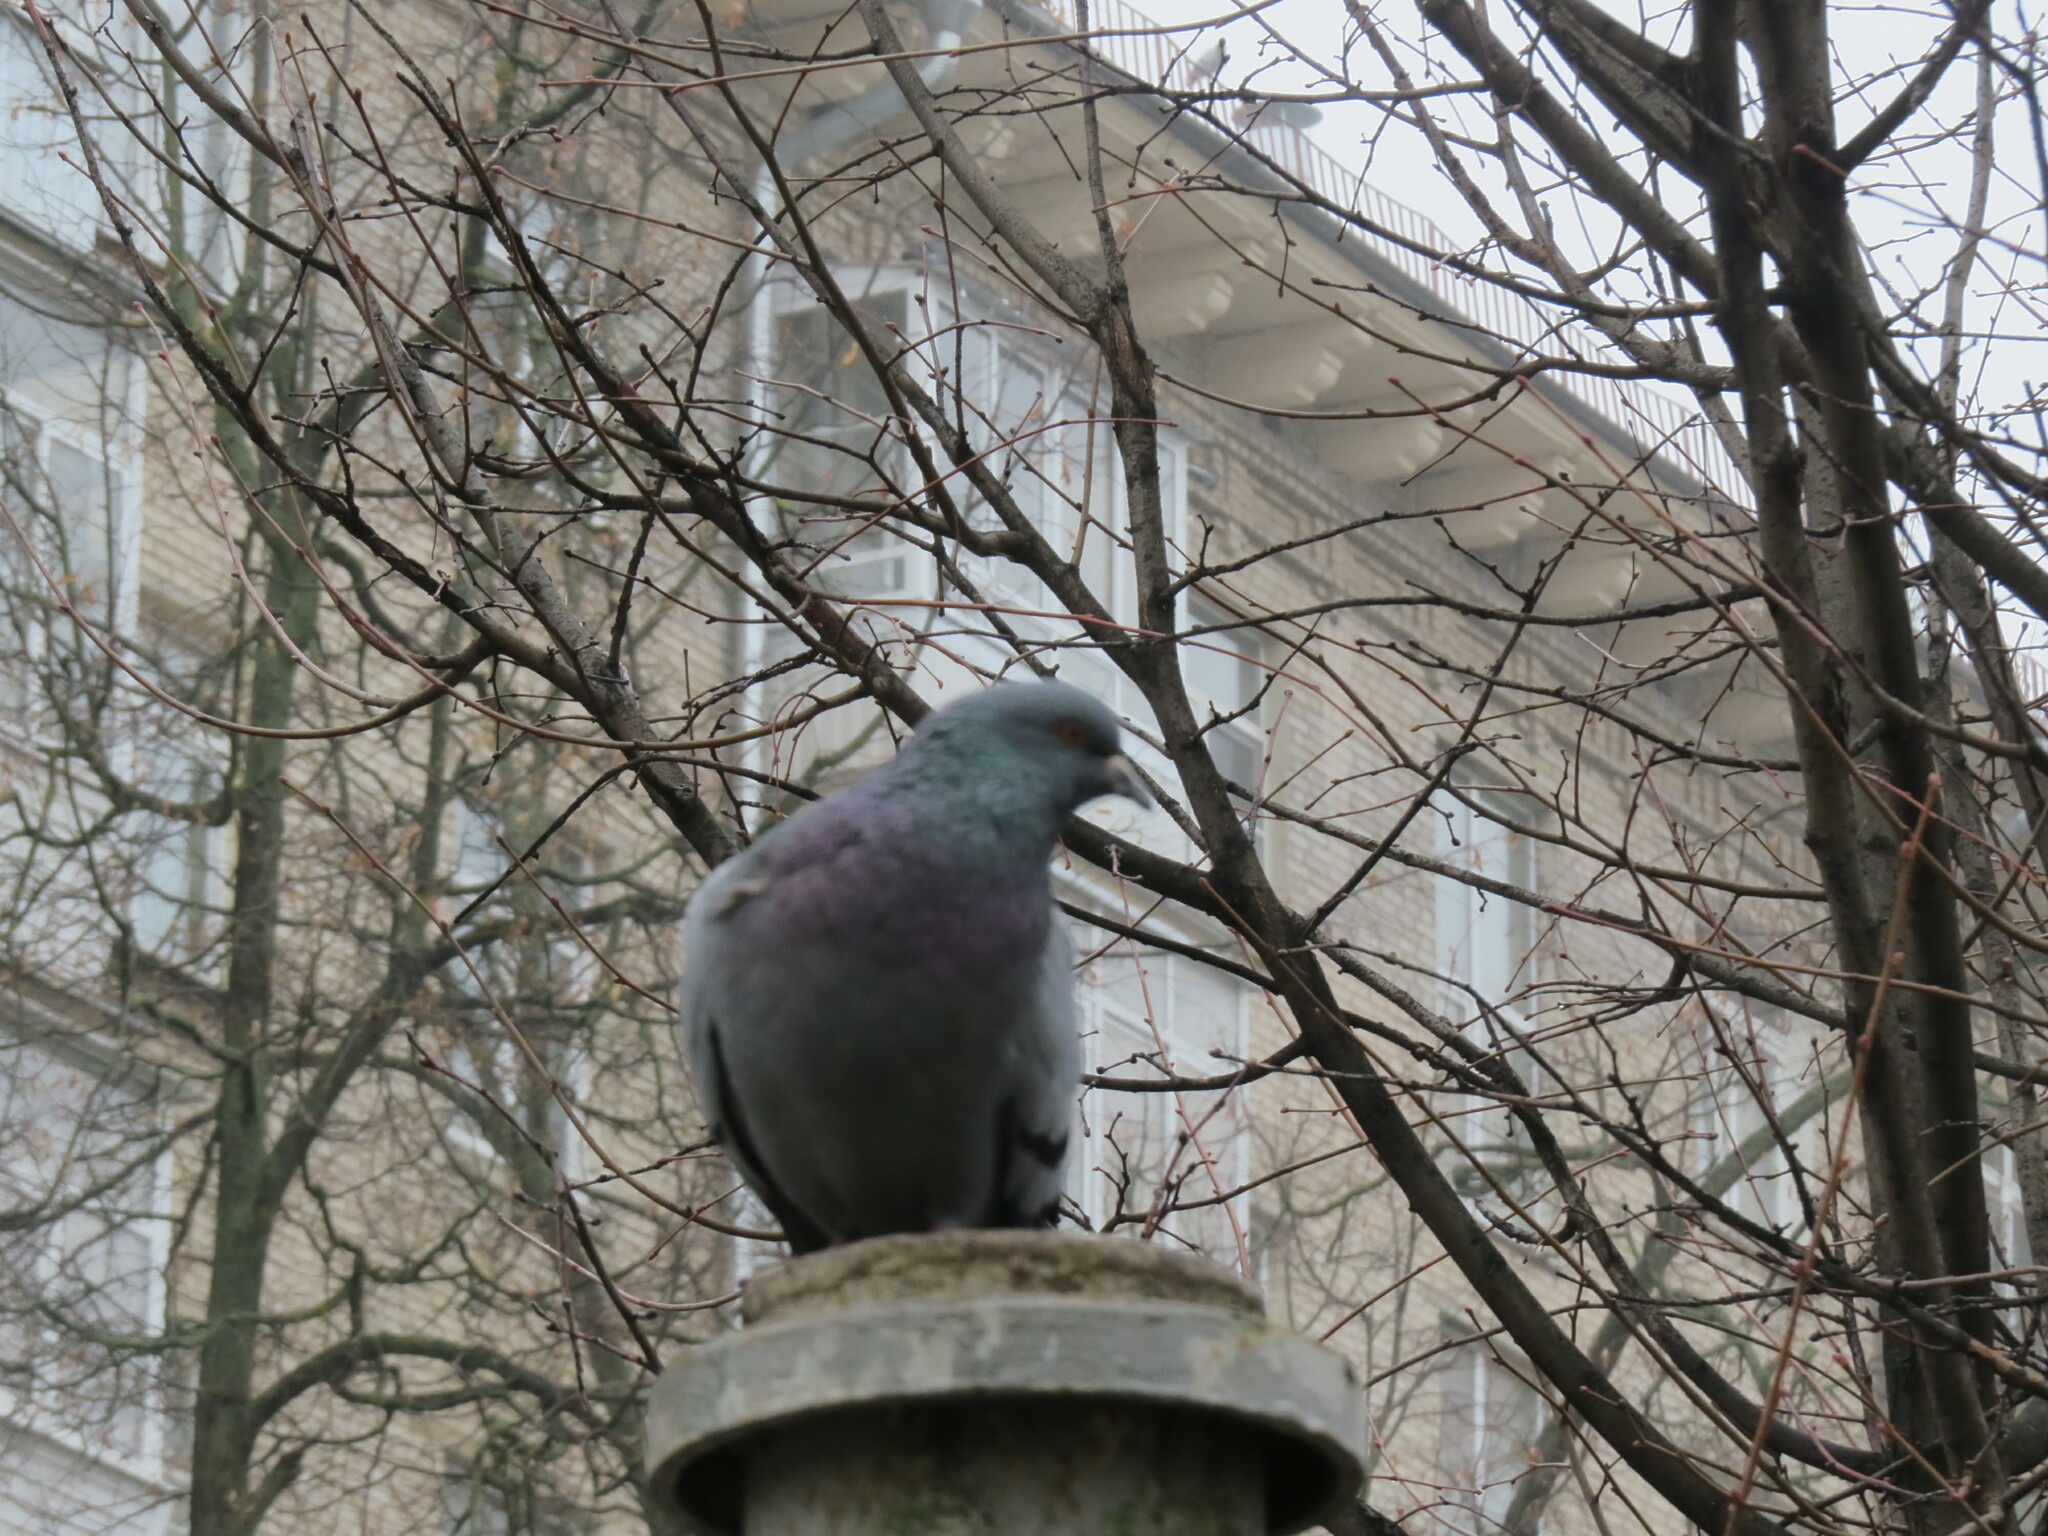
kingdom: Animalia
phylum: Chordata
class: Aves
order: Columbiformes
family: Columbidae
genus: Columba
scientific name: Columba livia
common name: Rock pigeon
